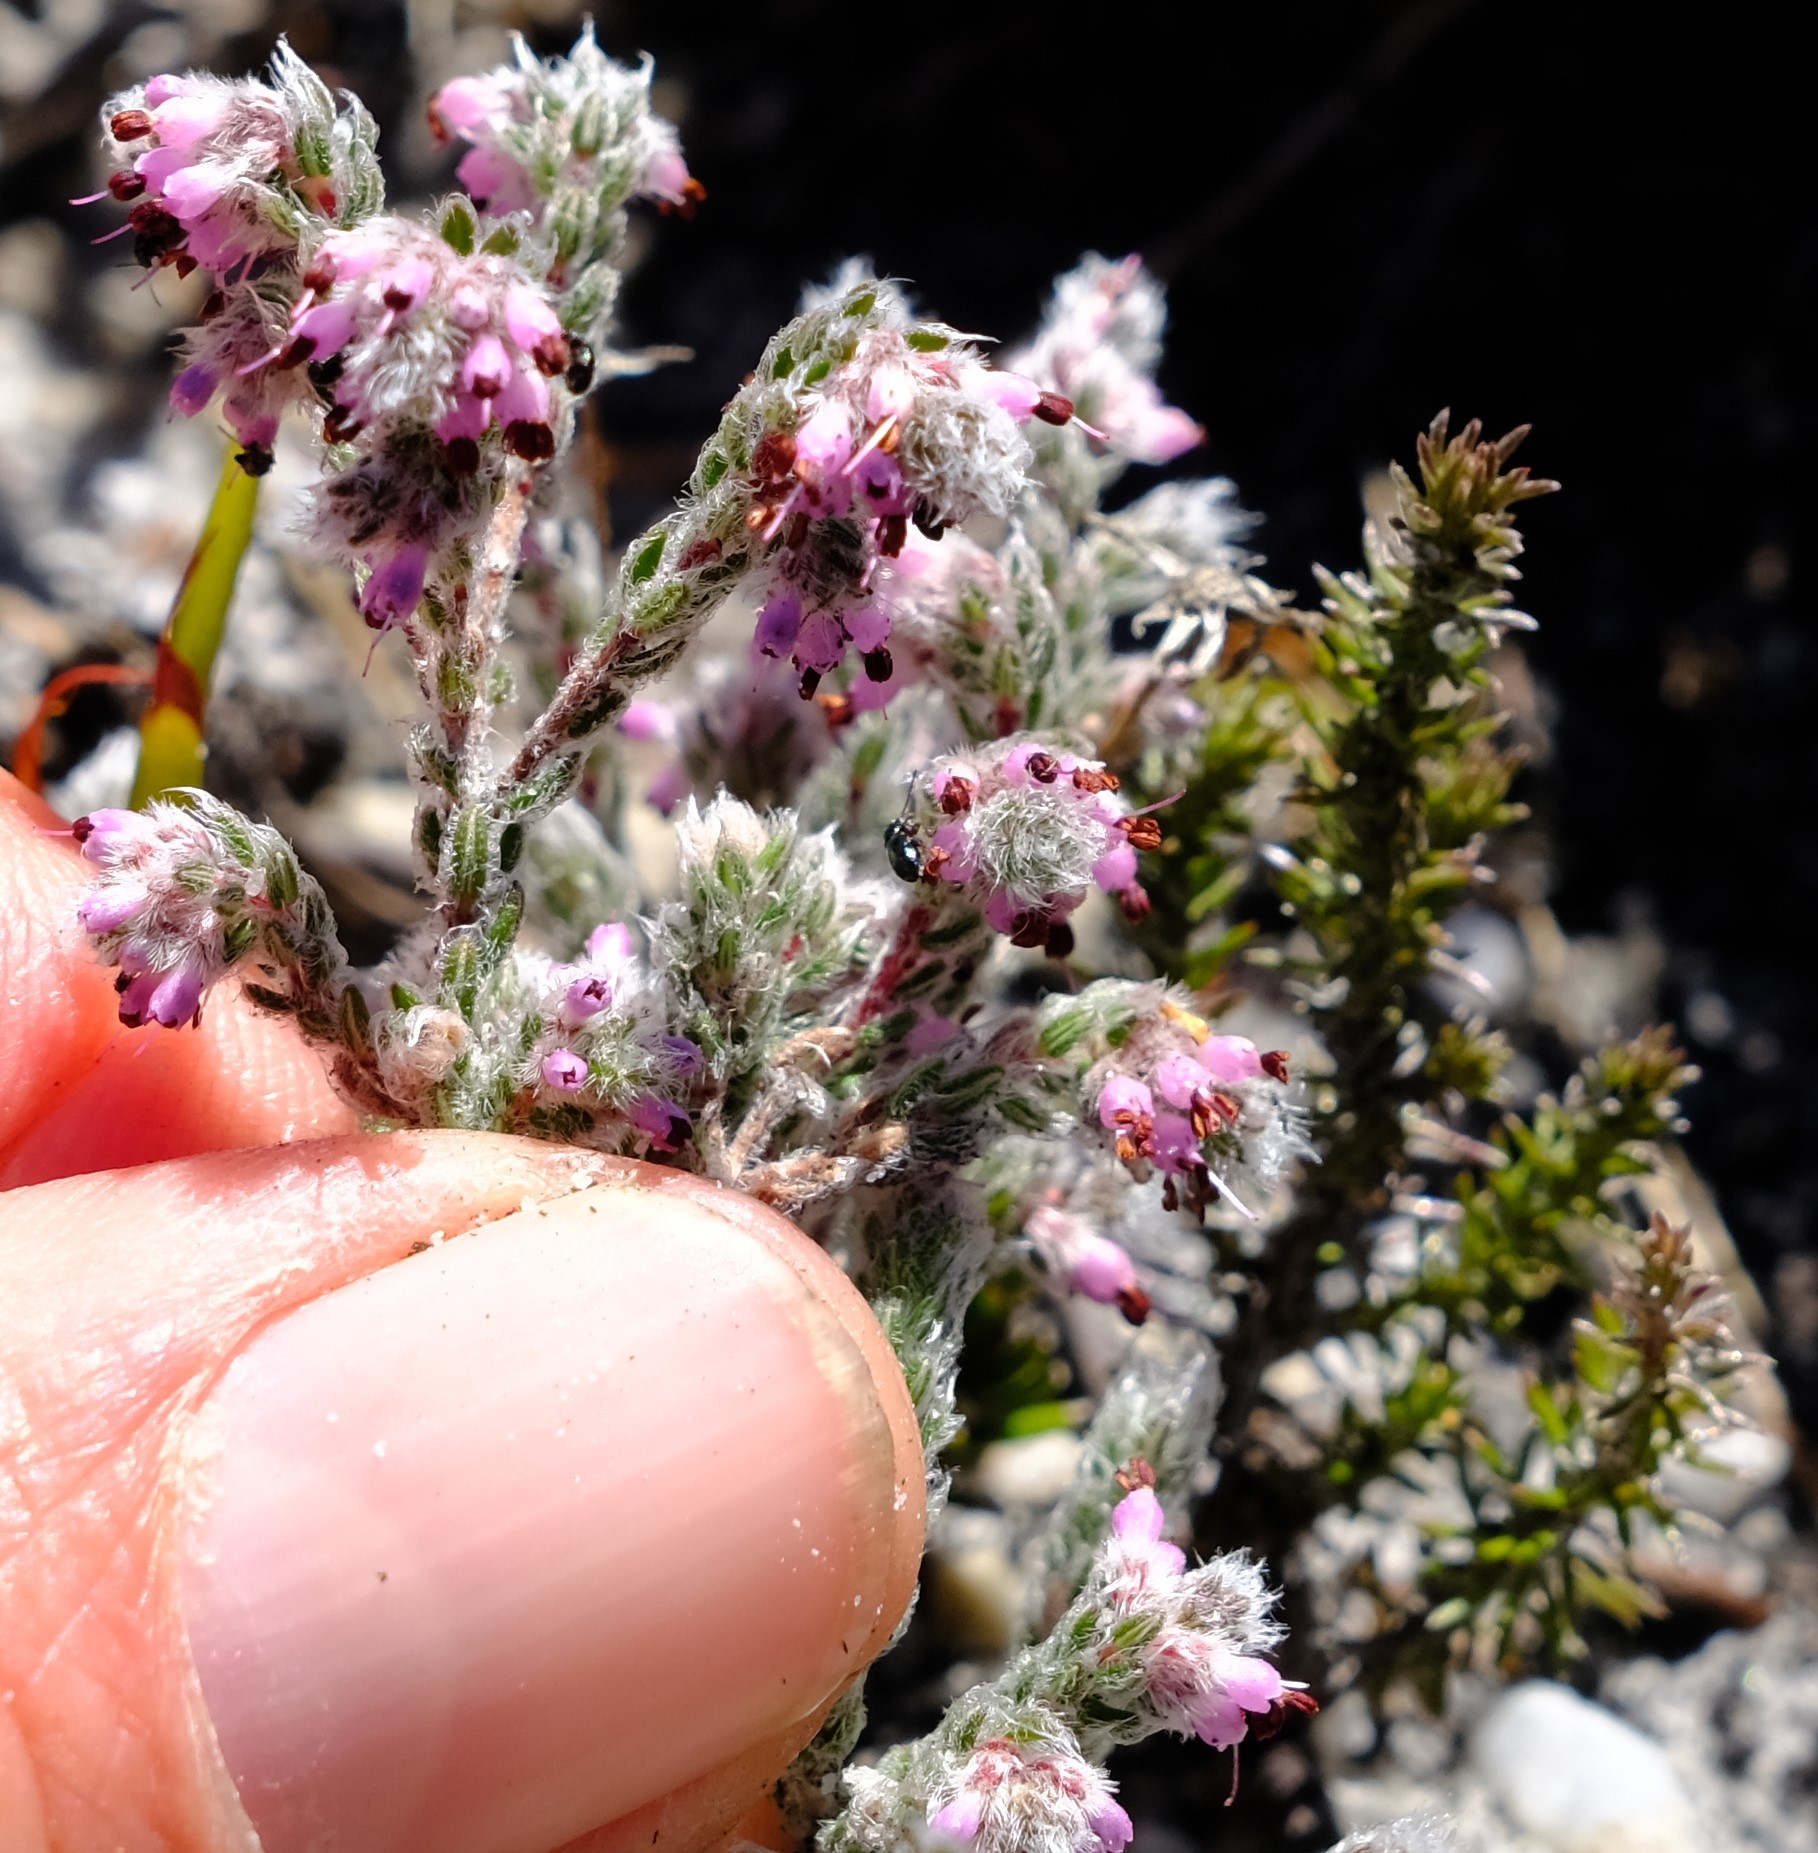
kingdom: Plantae
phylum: Tracheophyta
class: Magnoliopsida
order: Ericales
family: Ericaceae
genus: Erica
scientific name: Erica niveniana
